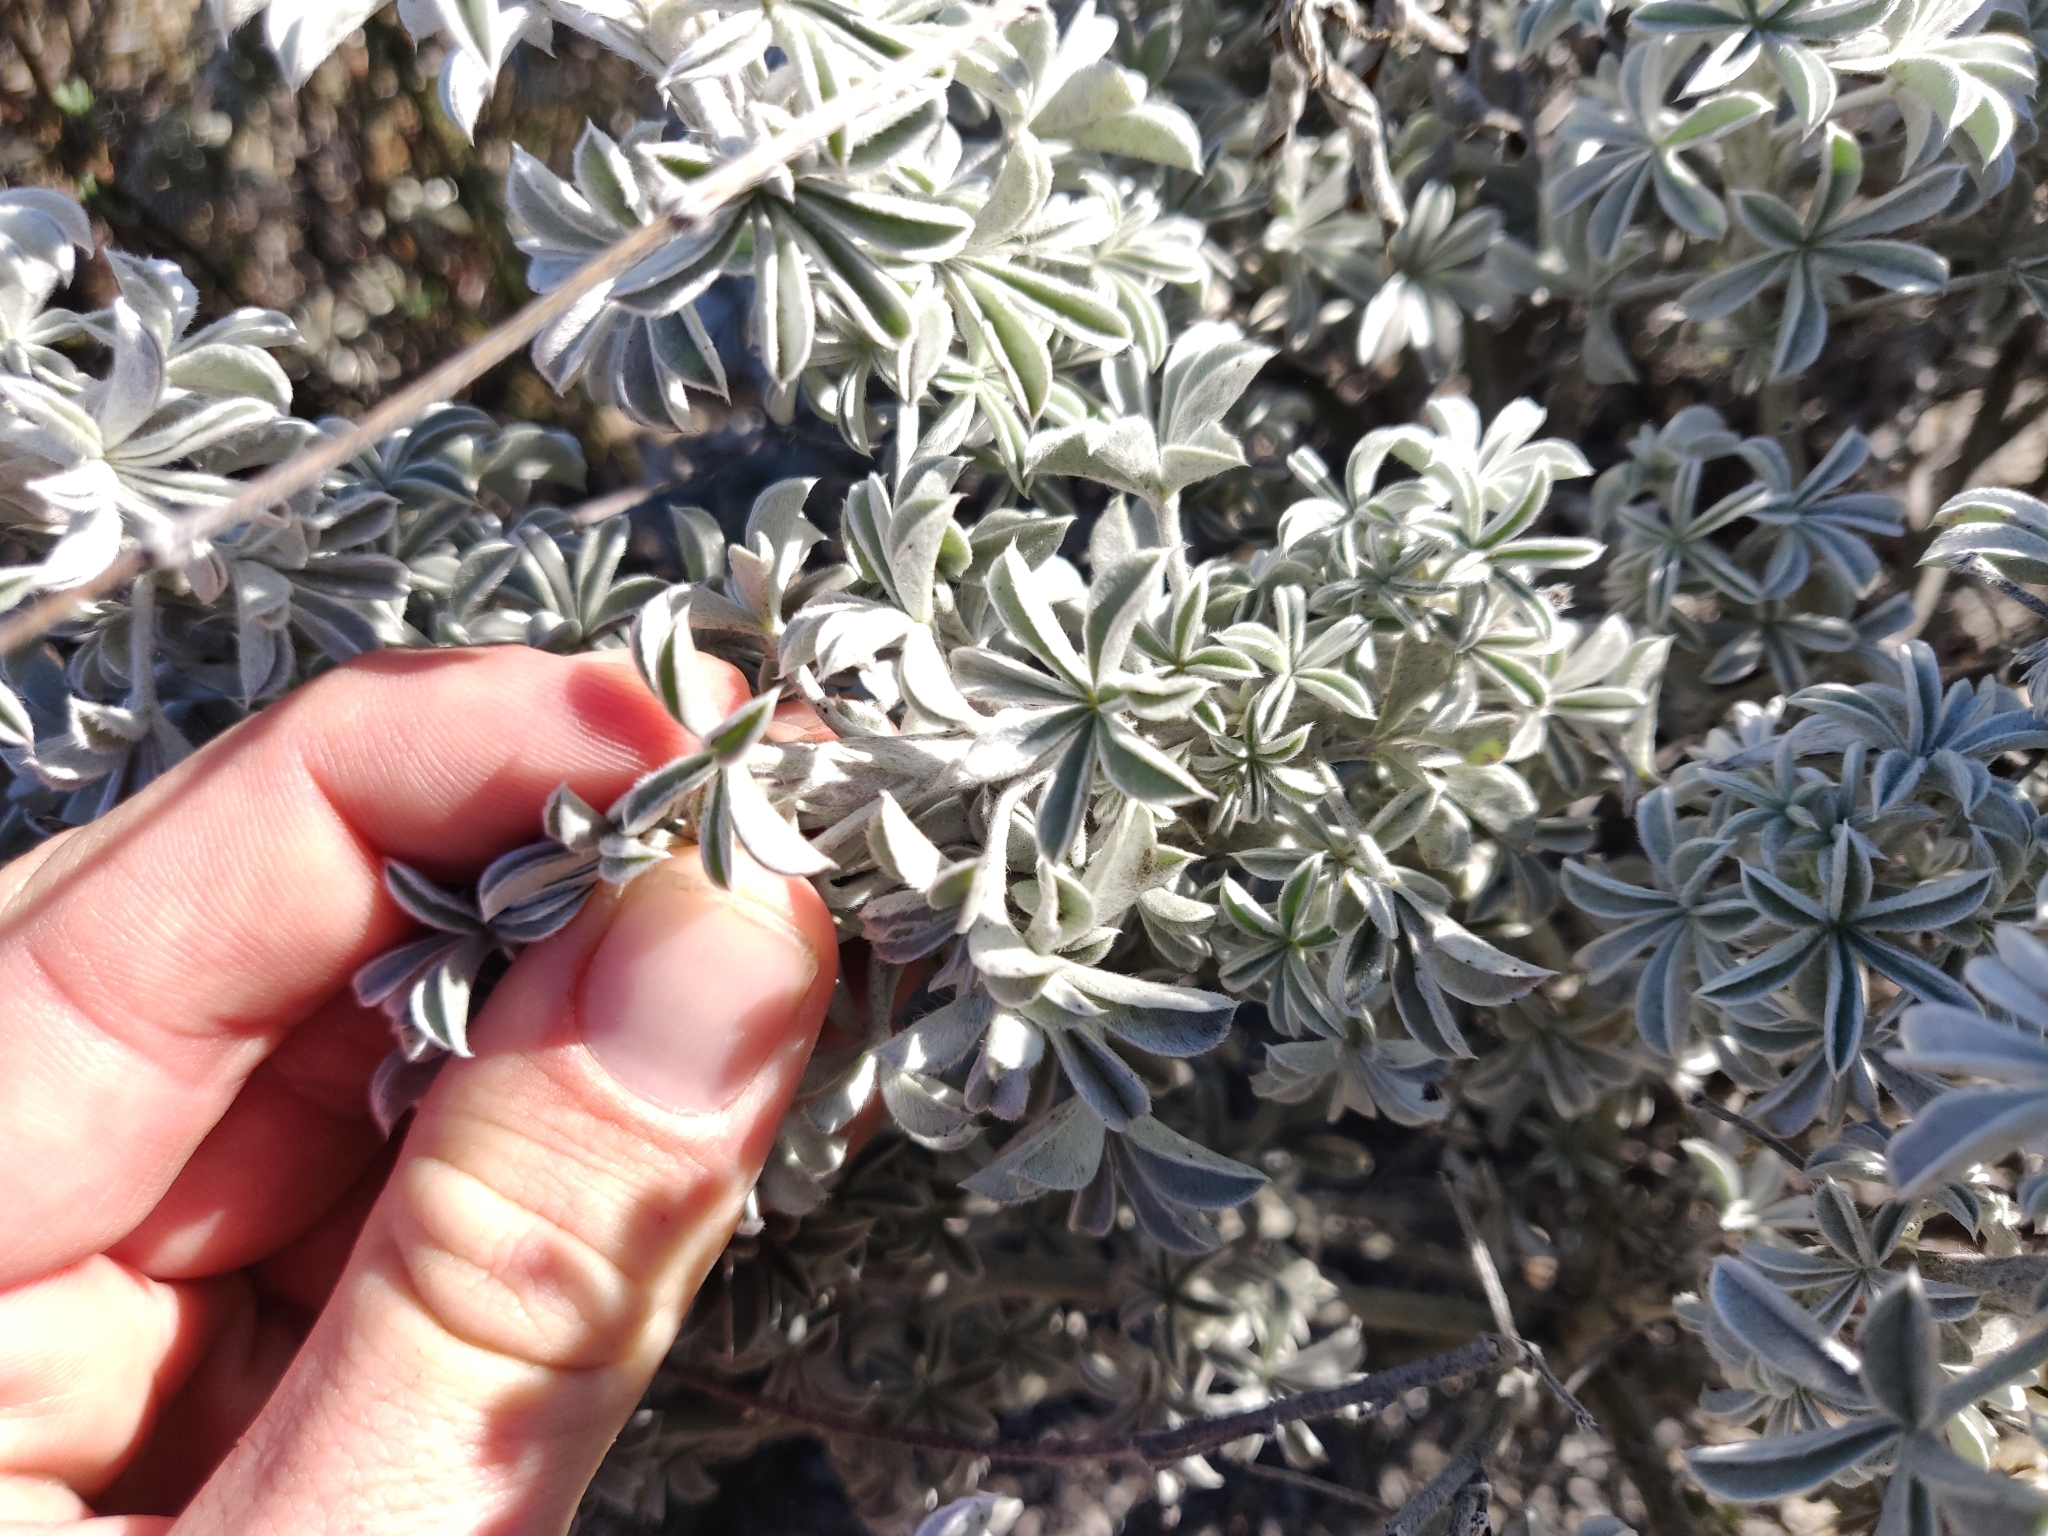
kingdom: Plantae
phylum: Tracheophyta
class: Magnoliopsida
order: Fabales
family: Fabaceae
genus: Lupinus
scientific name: Lupinus albifrons
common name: Foothill lupine
